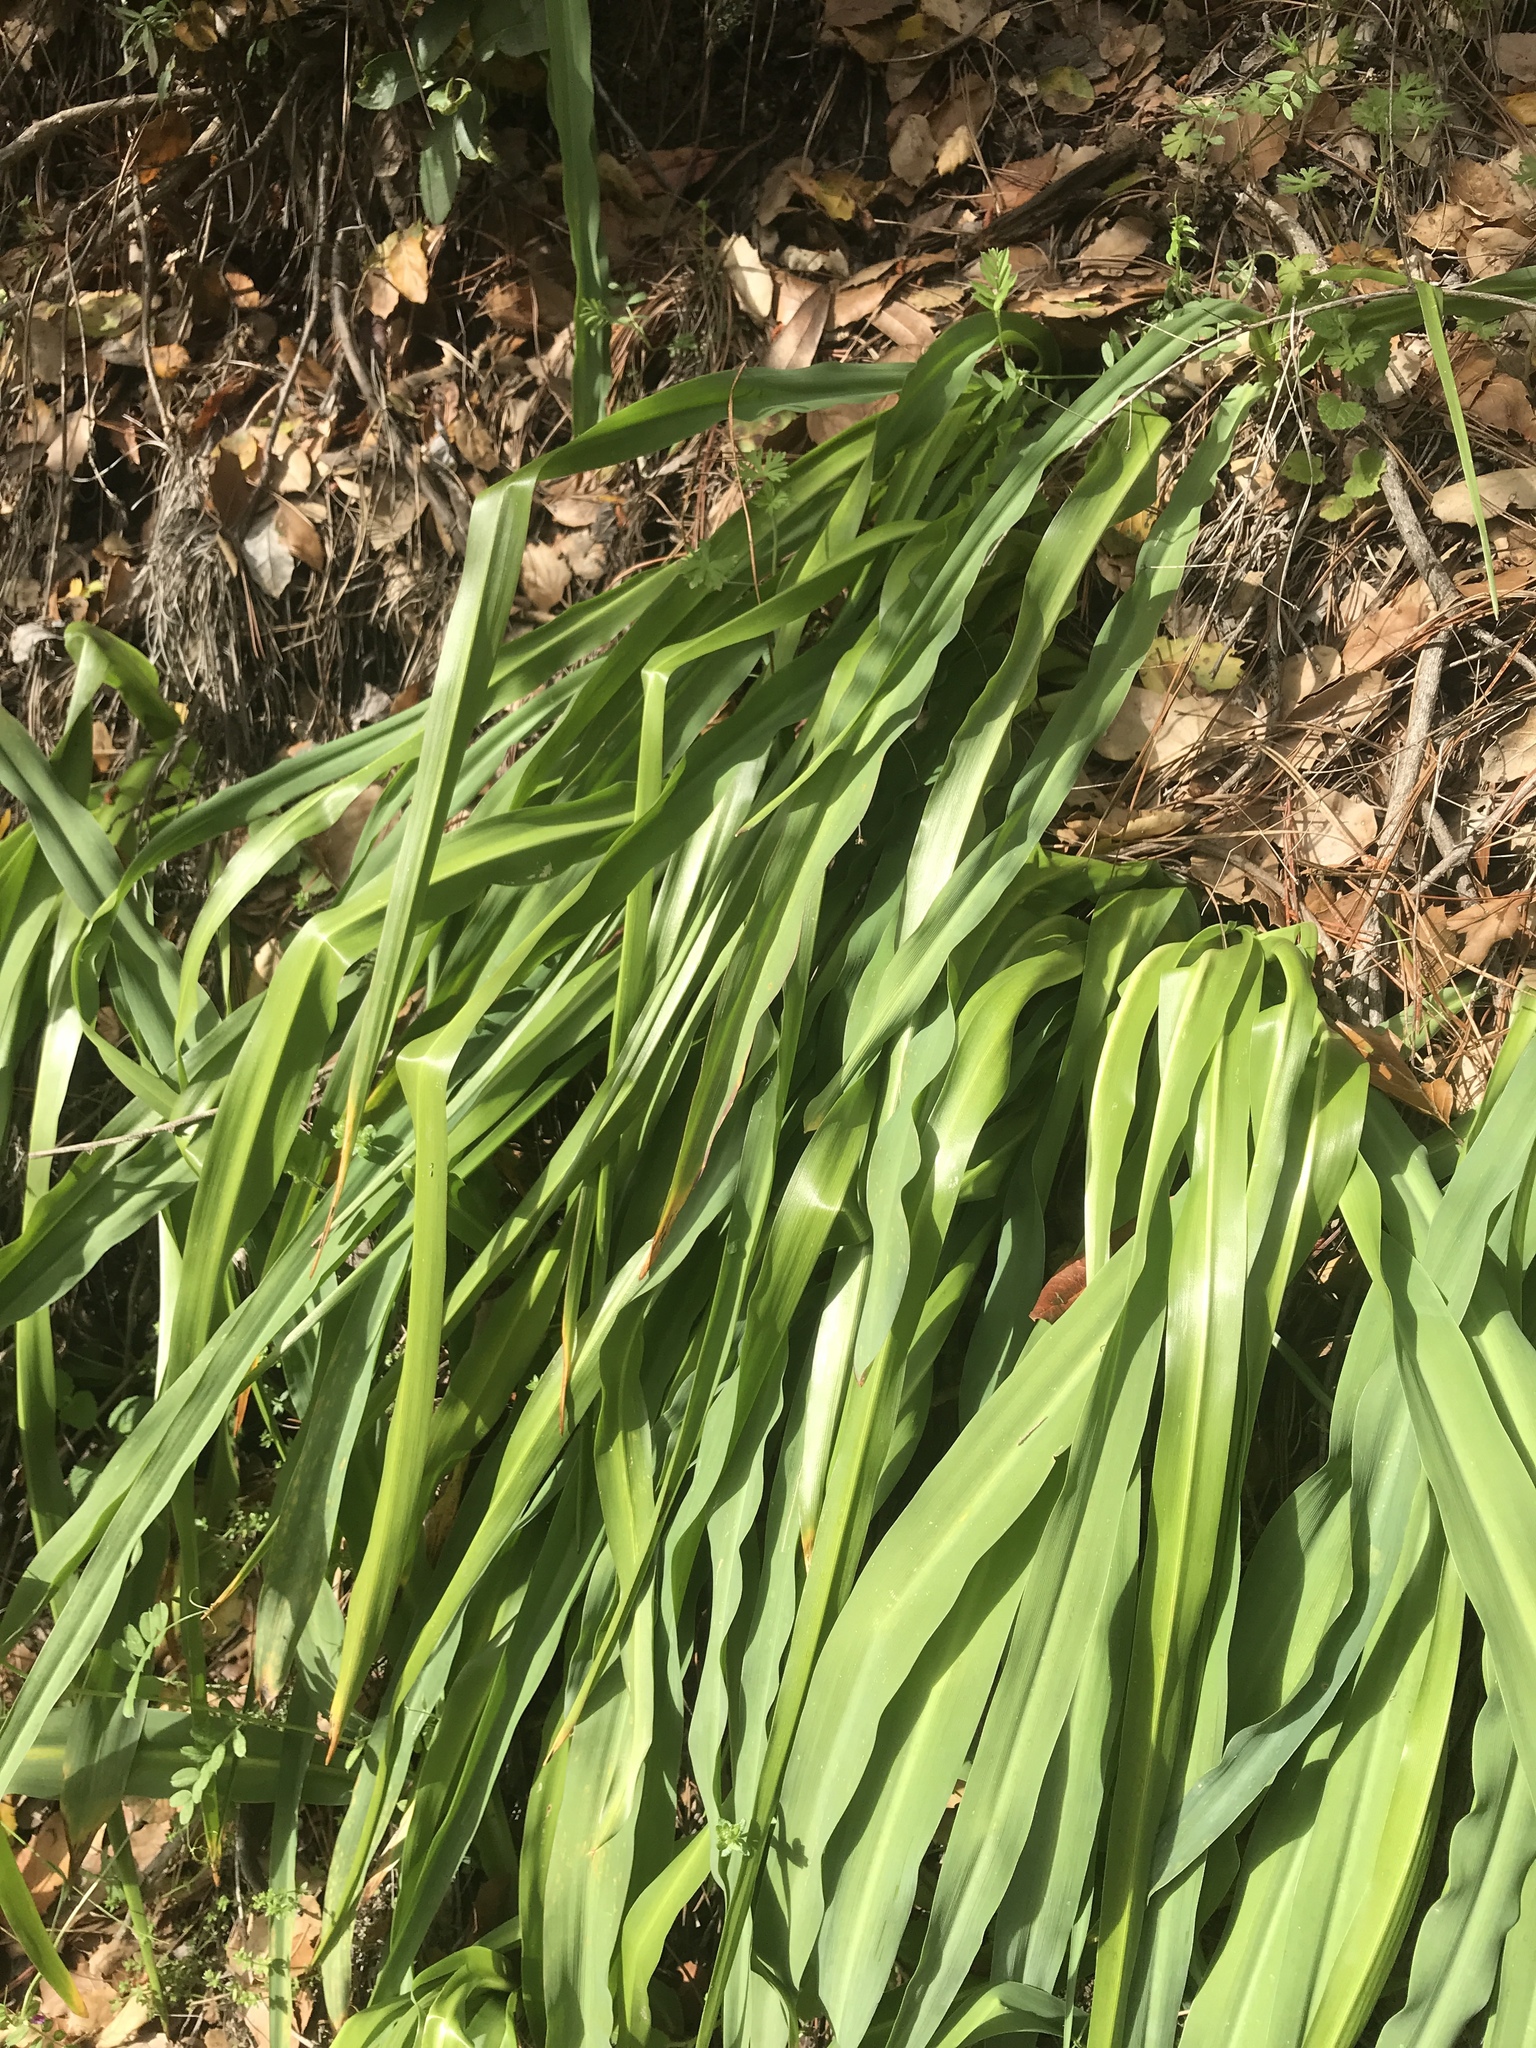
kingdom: Plantae
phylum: Tracheophyta
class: Liliopsida
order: Asparagales
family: Asparagaceae
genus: Chlorogalum
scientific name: Chlorogalum pomeridianum
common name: Amole
